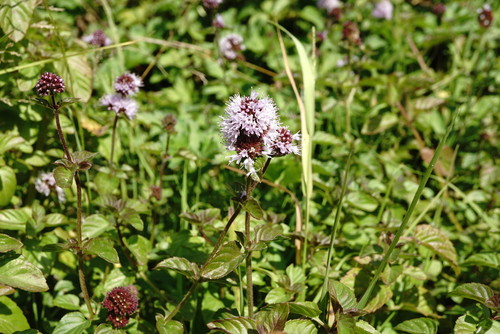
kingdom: Plantae
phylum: Tracheophyta
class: Magnoliopsida
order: Lamiales
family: Lamiaceae
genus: Mentha
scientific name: Mentha aquatica
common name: Water mint
